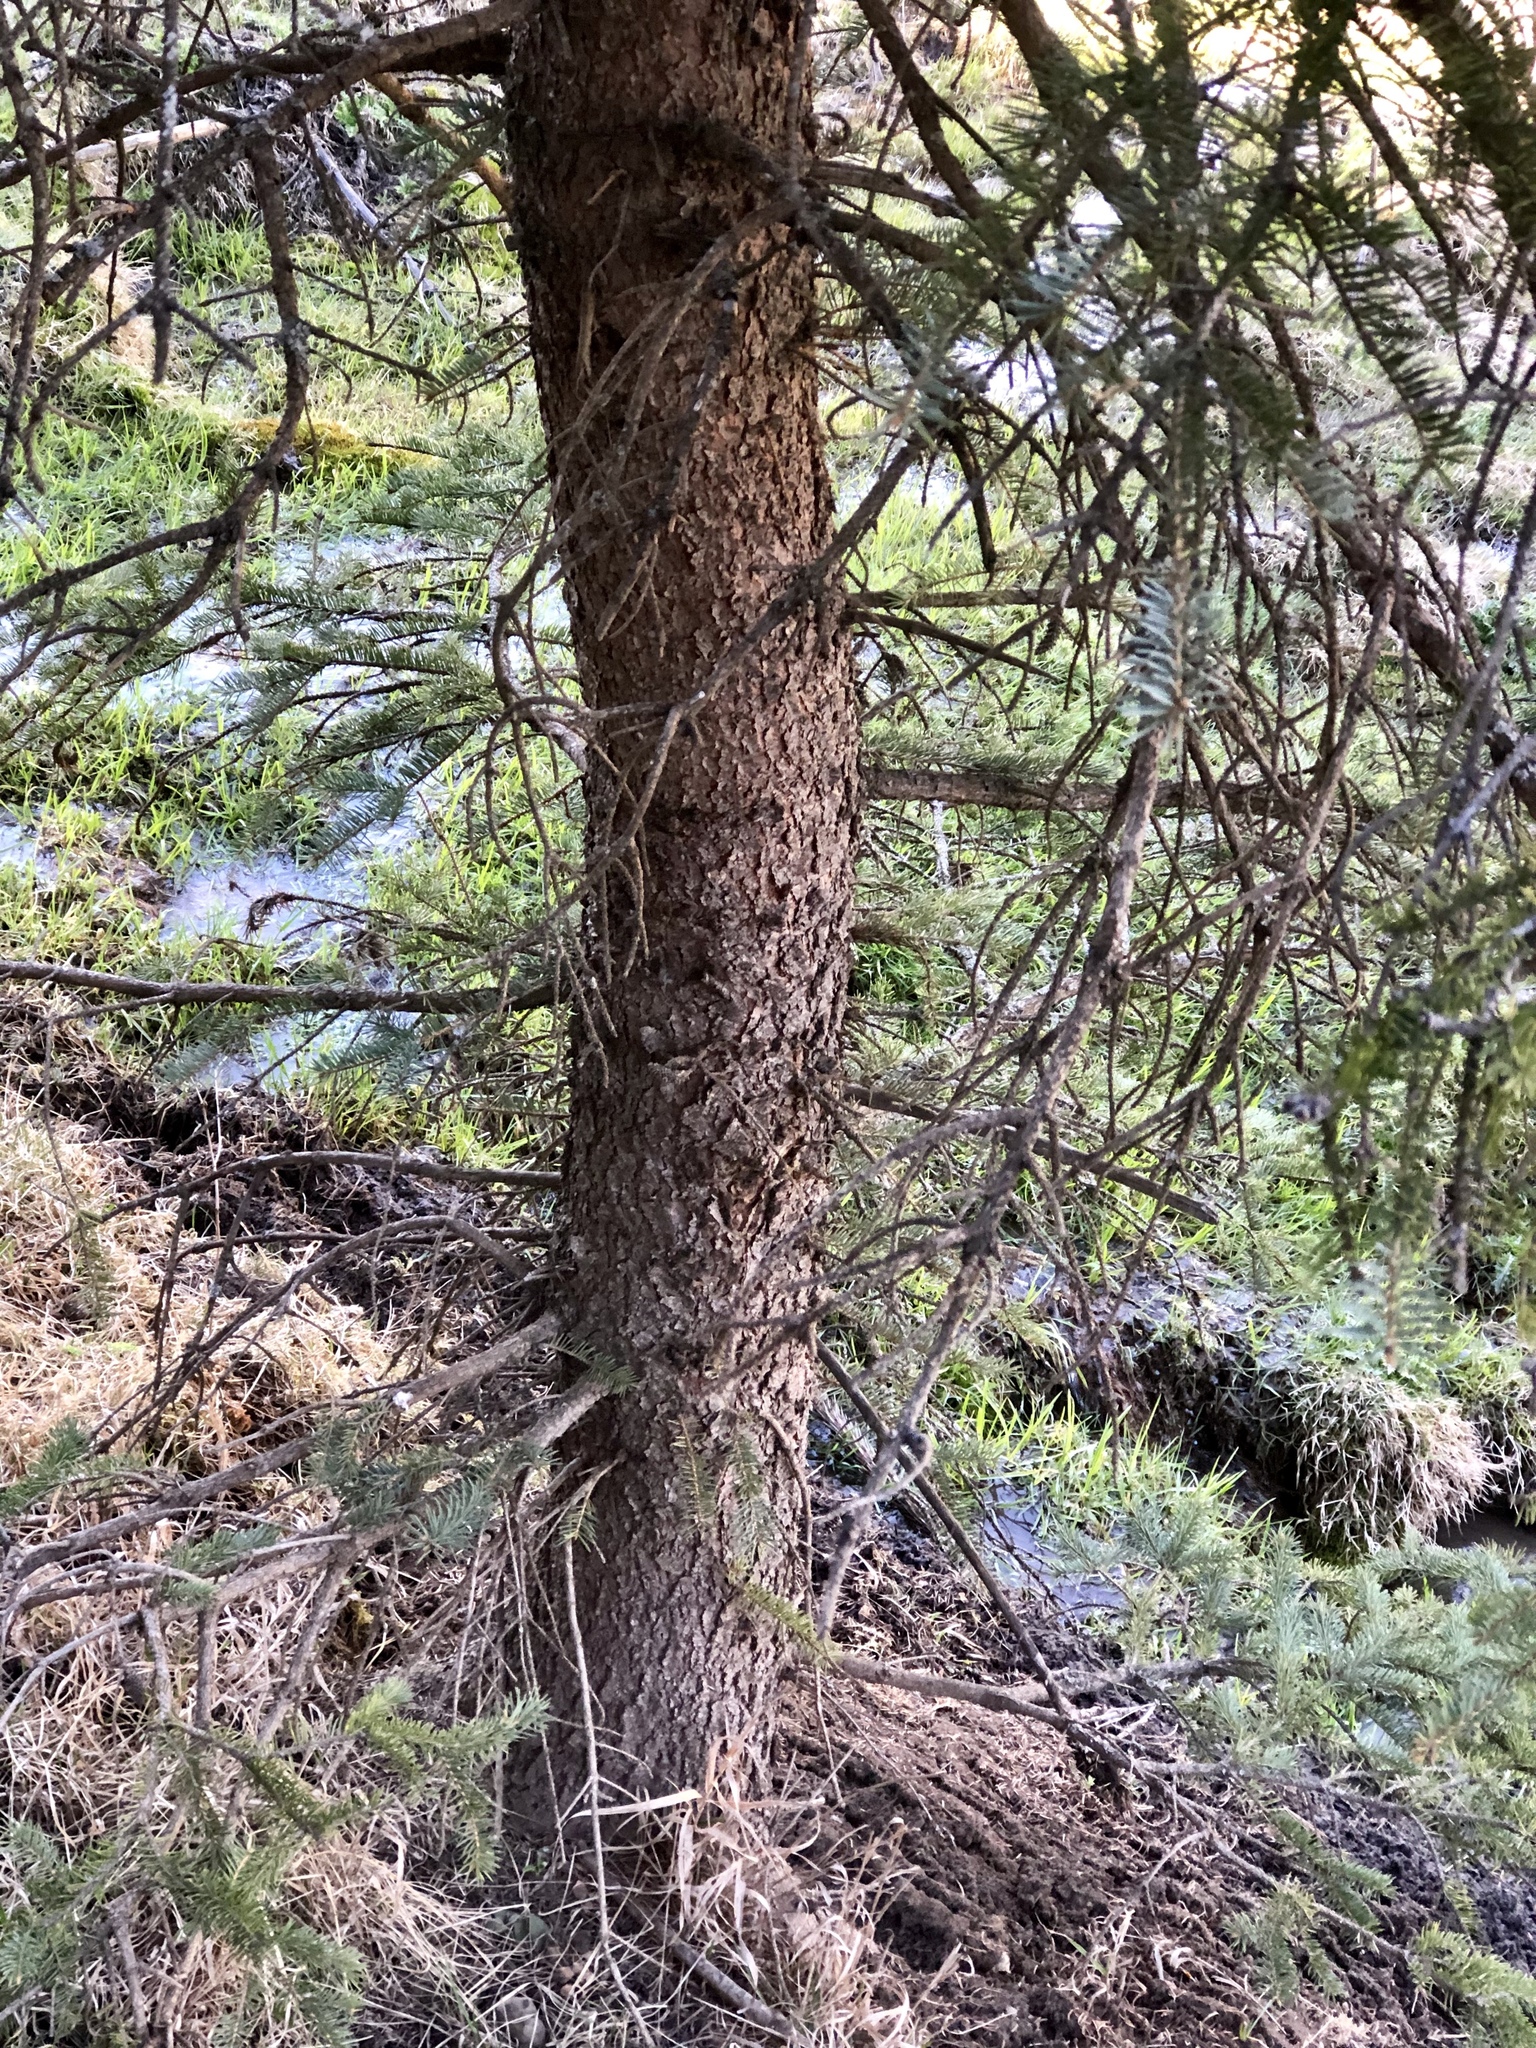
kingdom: Plantae
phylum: Tracheophyta
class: Pinopsida
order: Pinales
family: Pinaceae
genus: Picea
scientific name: Picea pungens
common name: Colorado spruce
